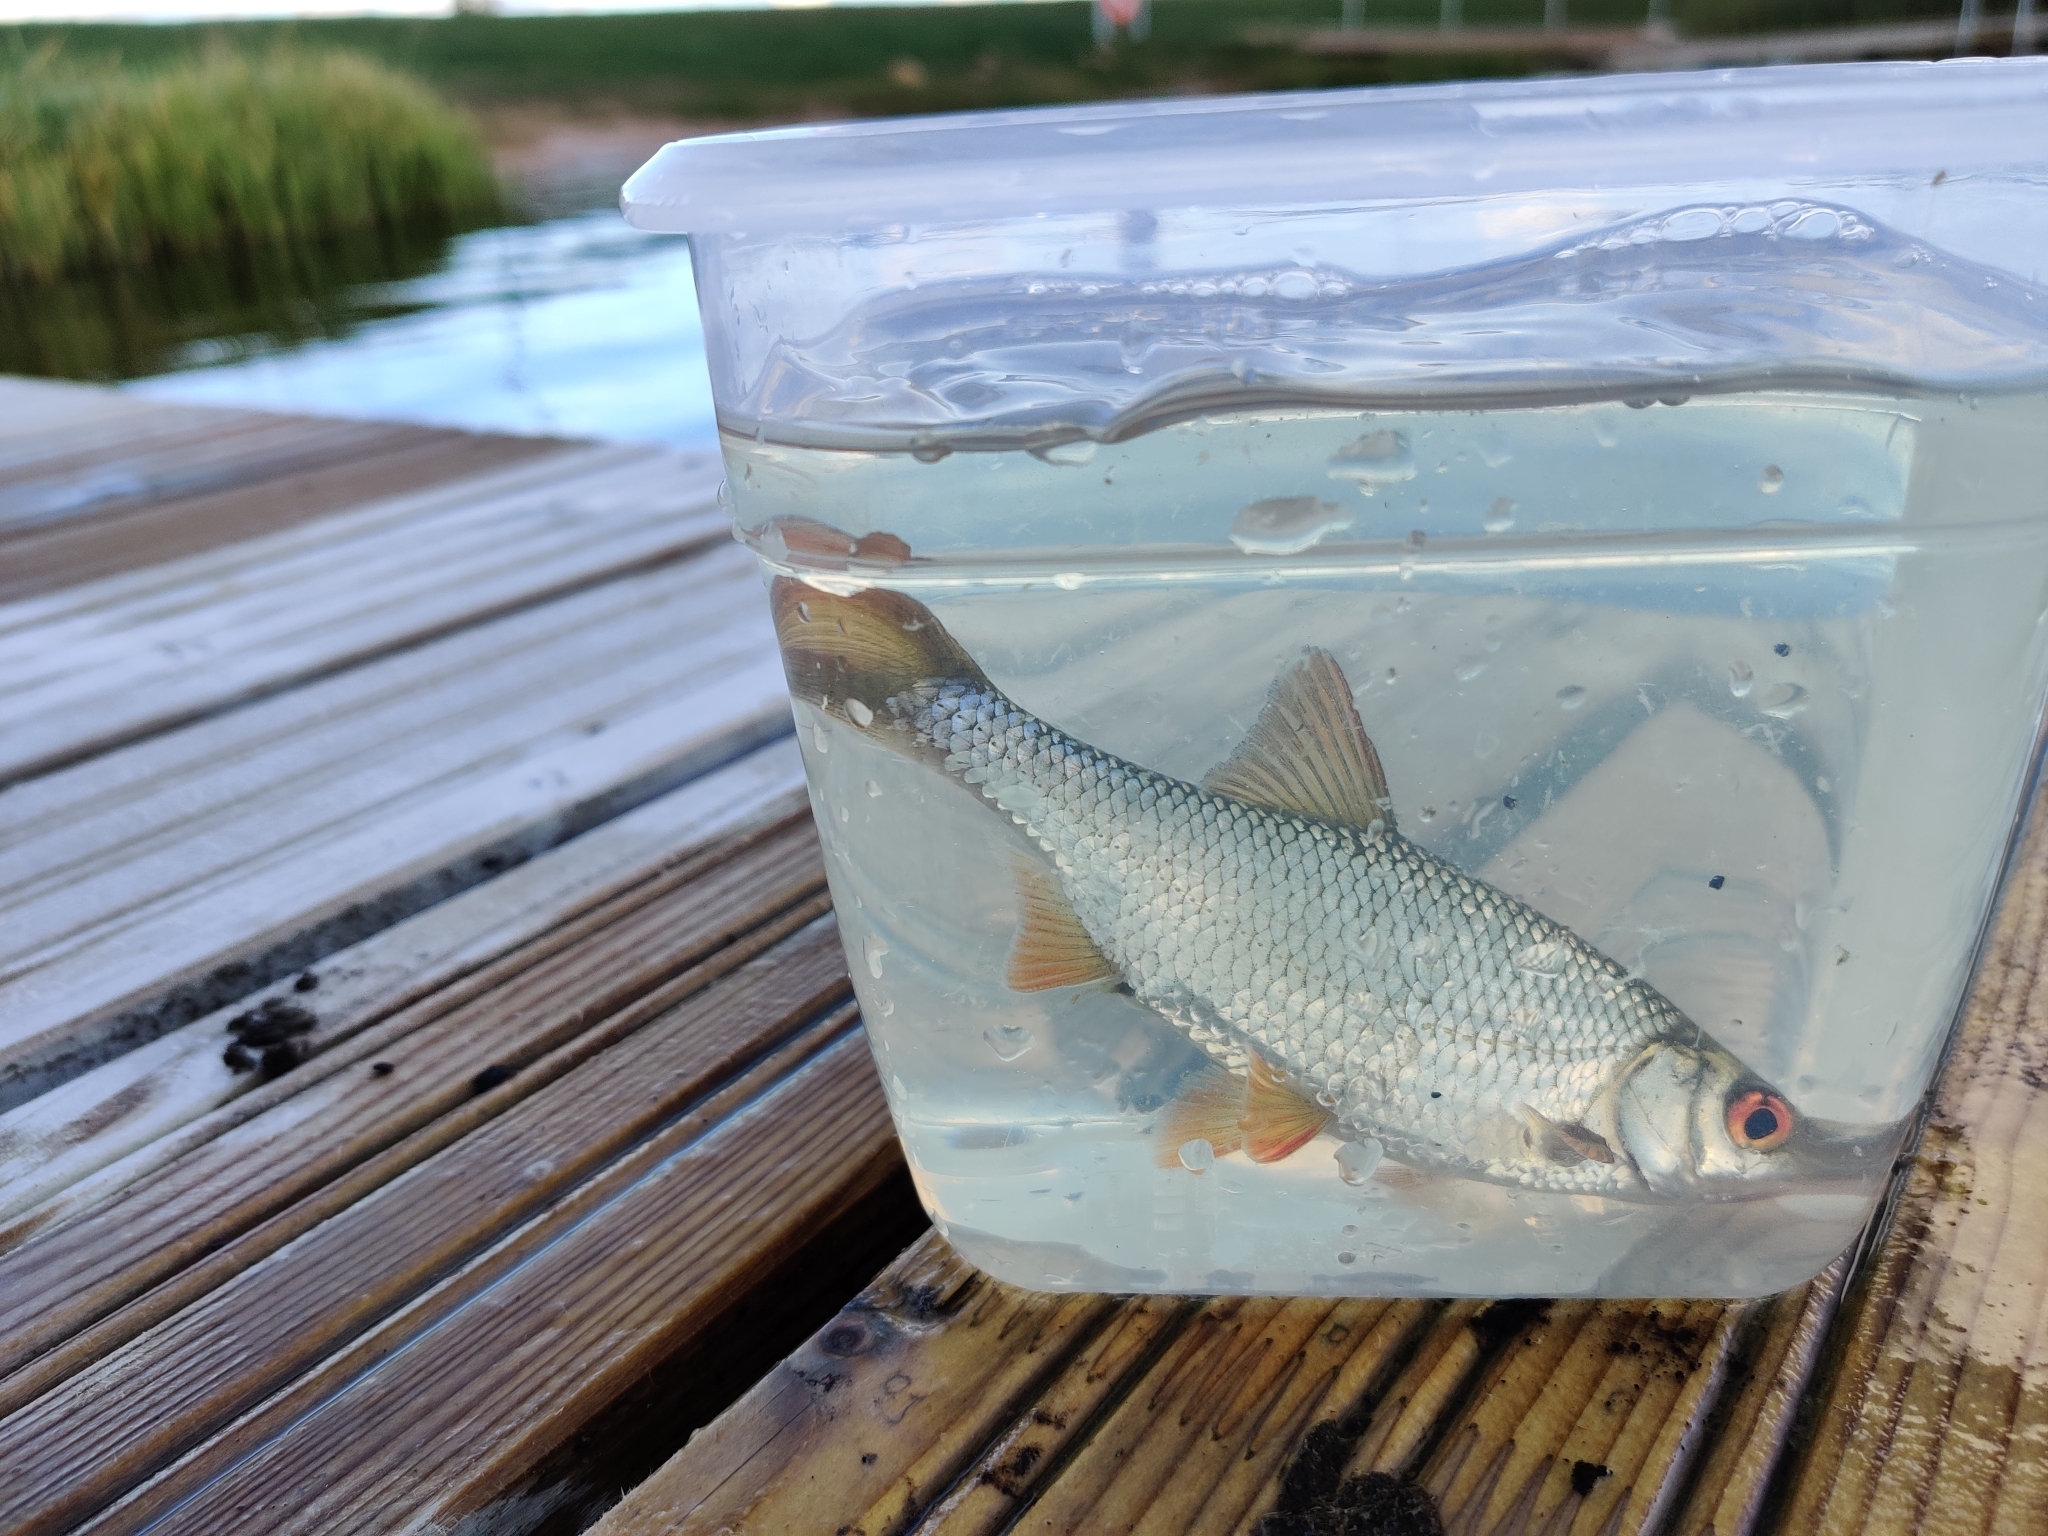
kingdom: Animalia
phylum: Chordata
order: Cypriniformes
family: Cyprinidae
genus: Rutilus
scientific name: Rutilus rutilus
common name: Roach
